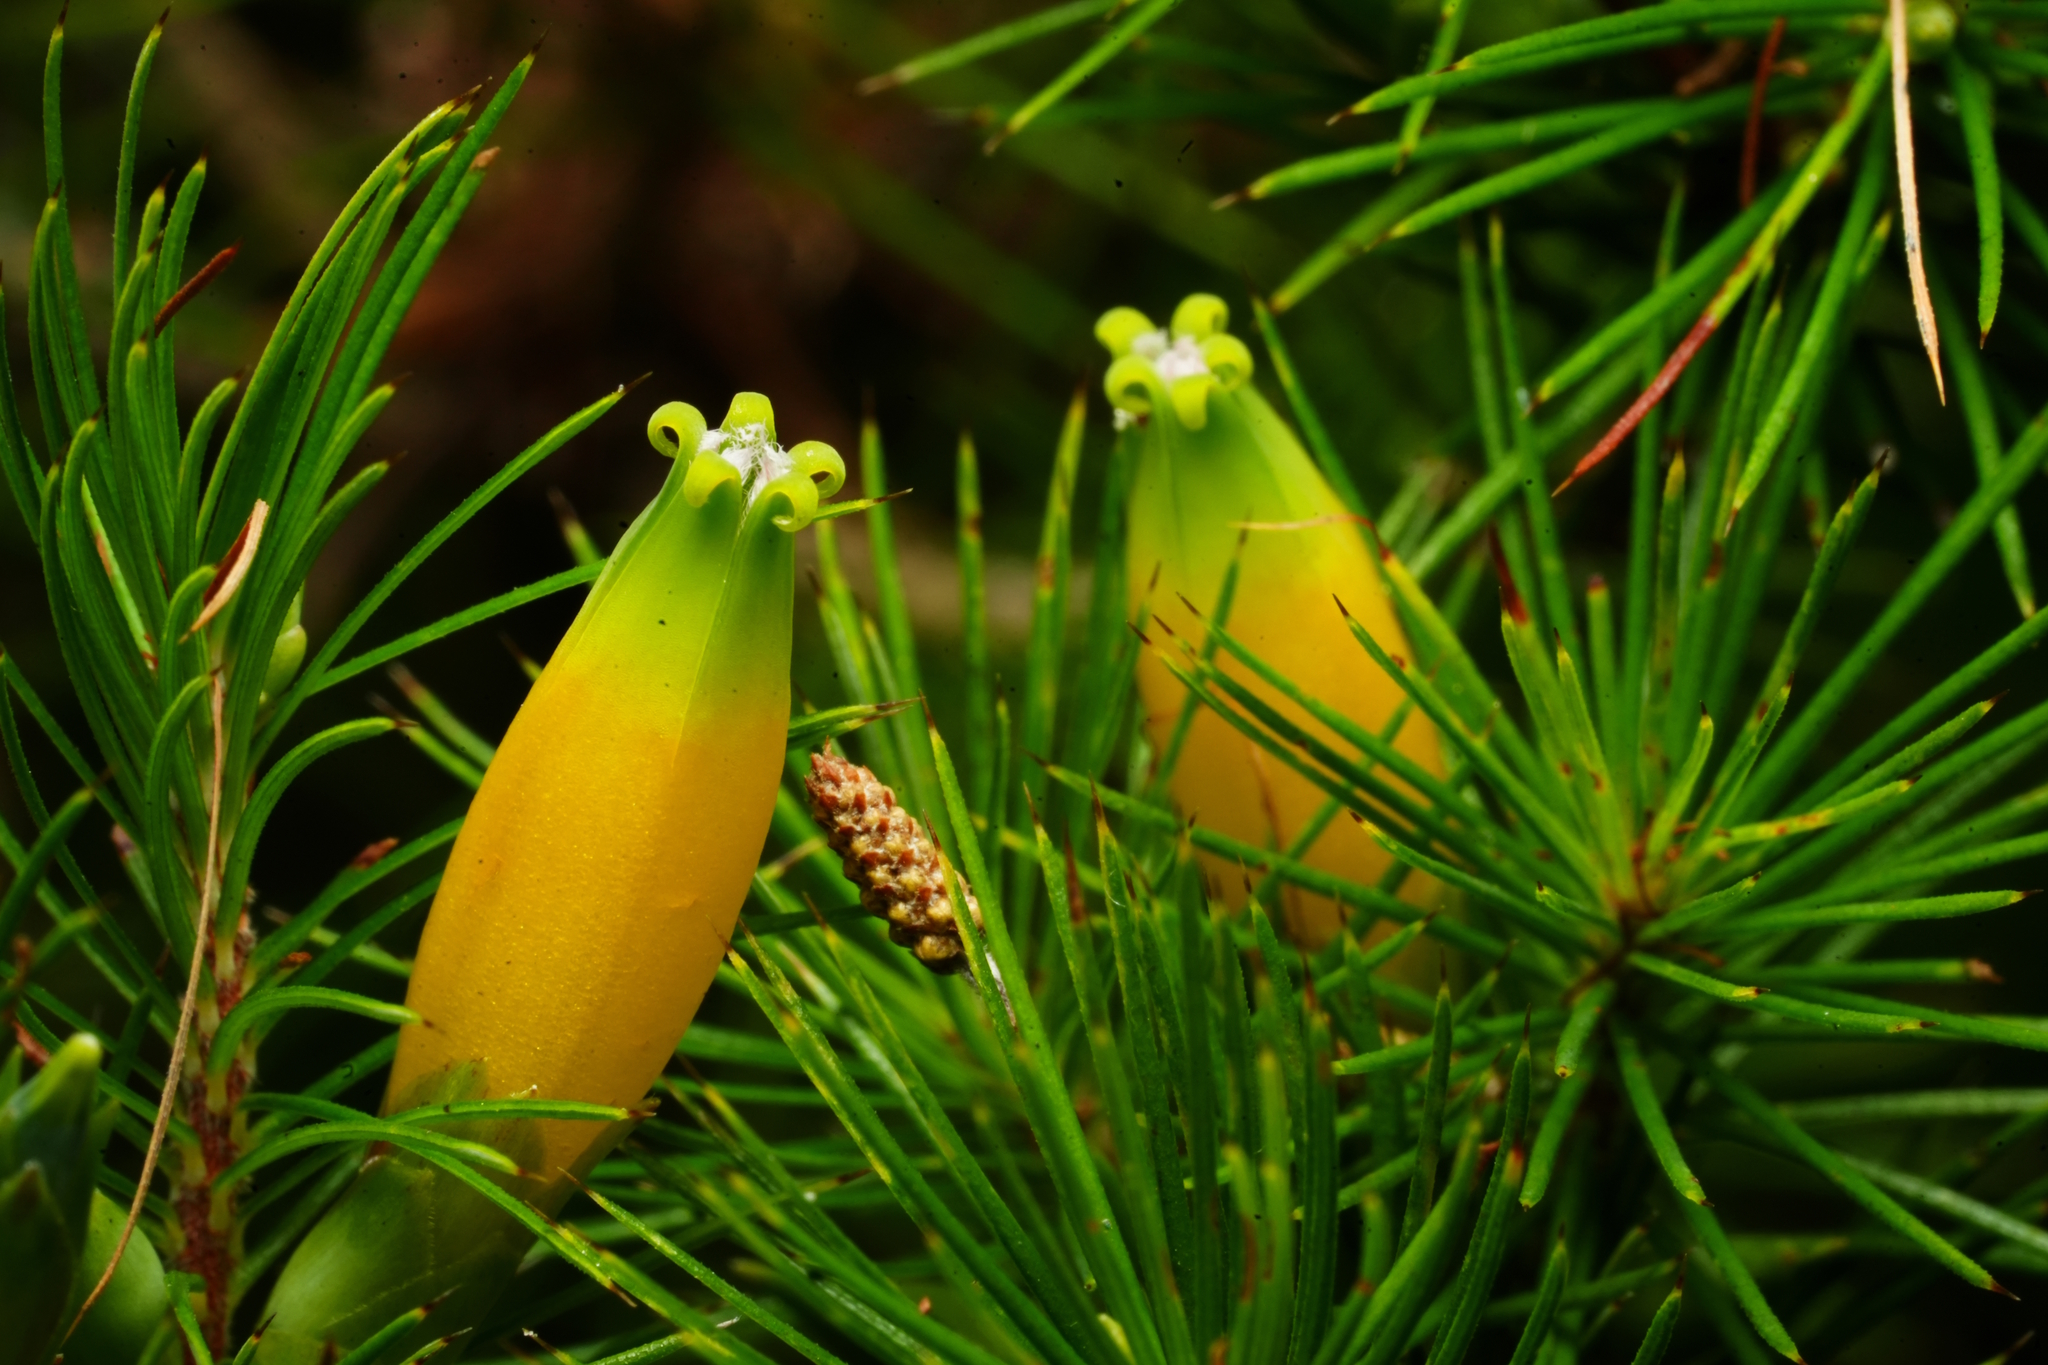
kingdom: Plantae
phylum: Tracheophyta
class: Magnoliopsida
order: Ericales
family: Ericaceae
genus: Stenanthera
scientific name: Stenanthera pinifolia
